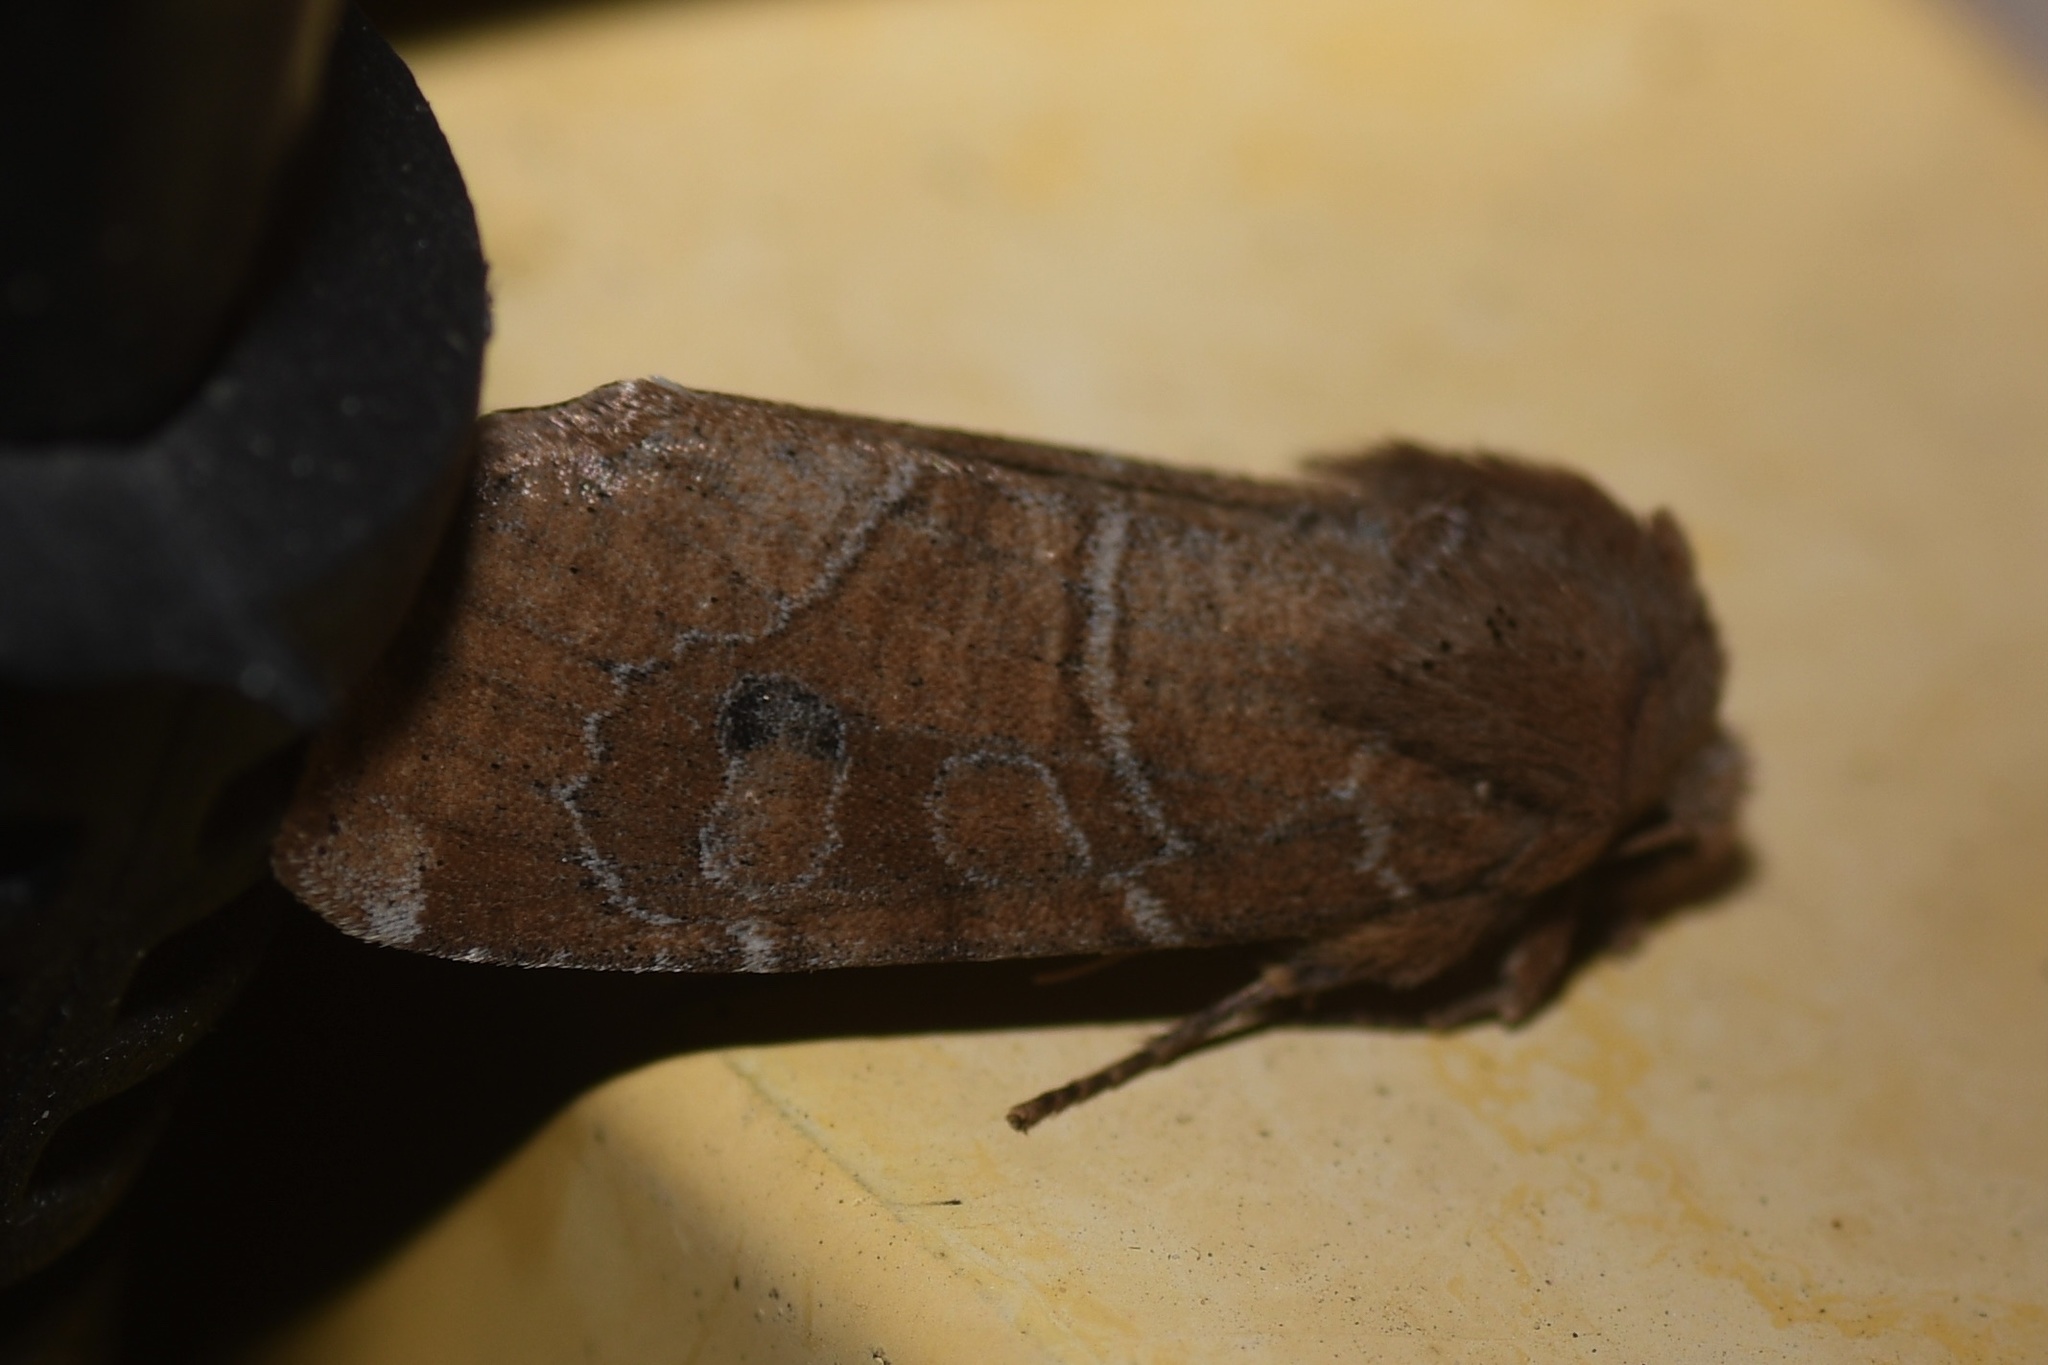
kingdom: Animalia
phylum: Arthropoda
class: Insecta
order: Lepidoptera
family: Noctuidae
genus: Crocigrapha
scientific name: Crocigrapha normani
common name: Norman's quaker
